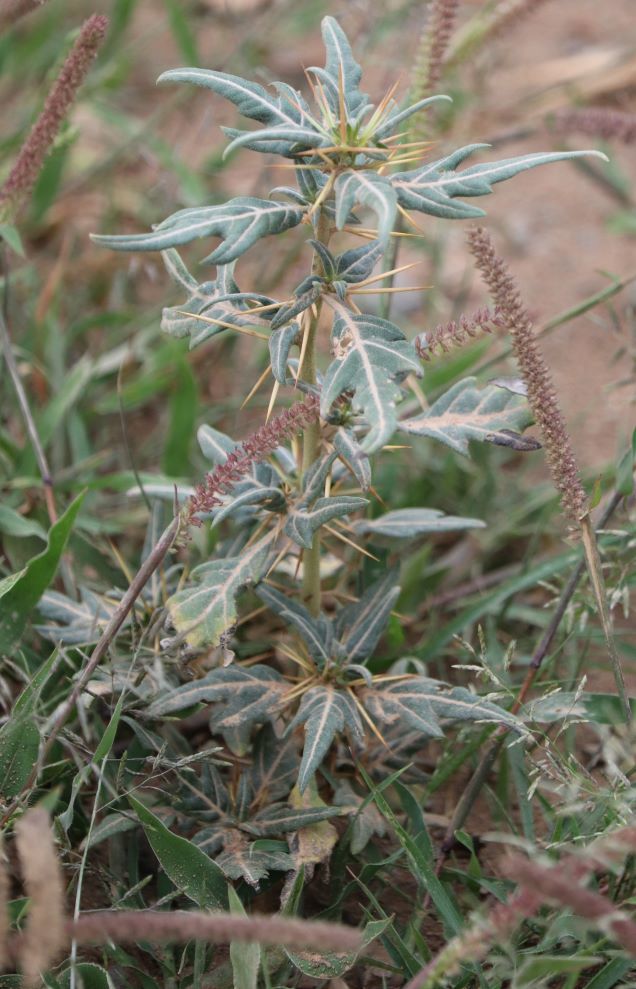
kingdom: Plantae
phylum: Tracheophyta
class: Magnoliopsida
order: Asterales
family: Asteraceae
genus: Xanthium
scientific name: Xanthium spinosum
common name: Spiny cocklebur
